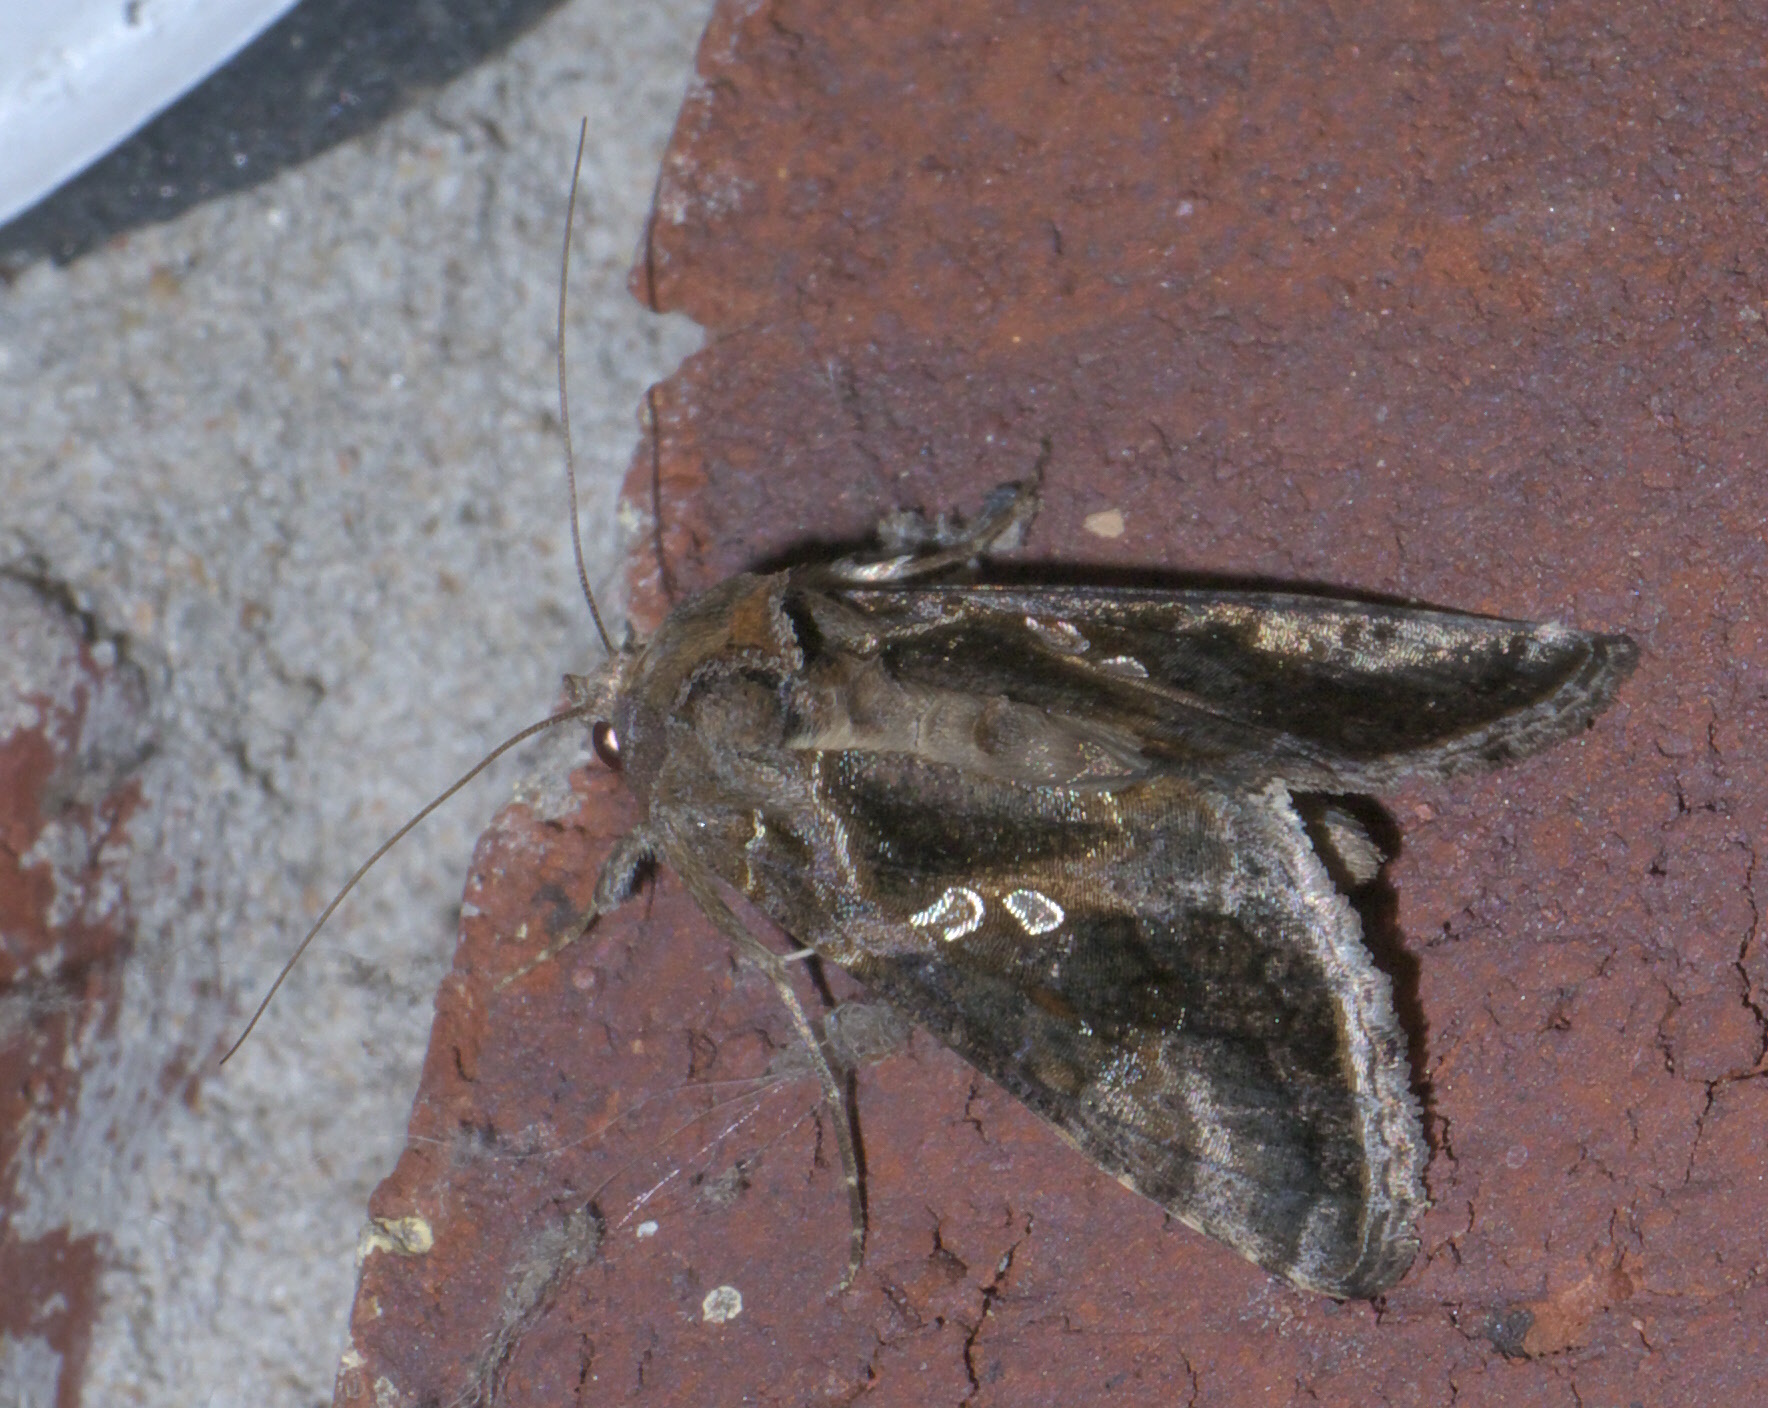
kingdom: Animalia
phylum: Arthropoda
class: Insecta
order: Lepidoptera
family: Noctuidae
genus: Chrysodeixis
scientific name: Chrysodeixis includens
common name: Cutworm moth
